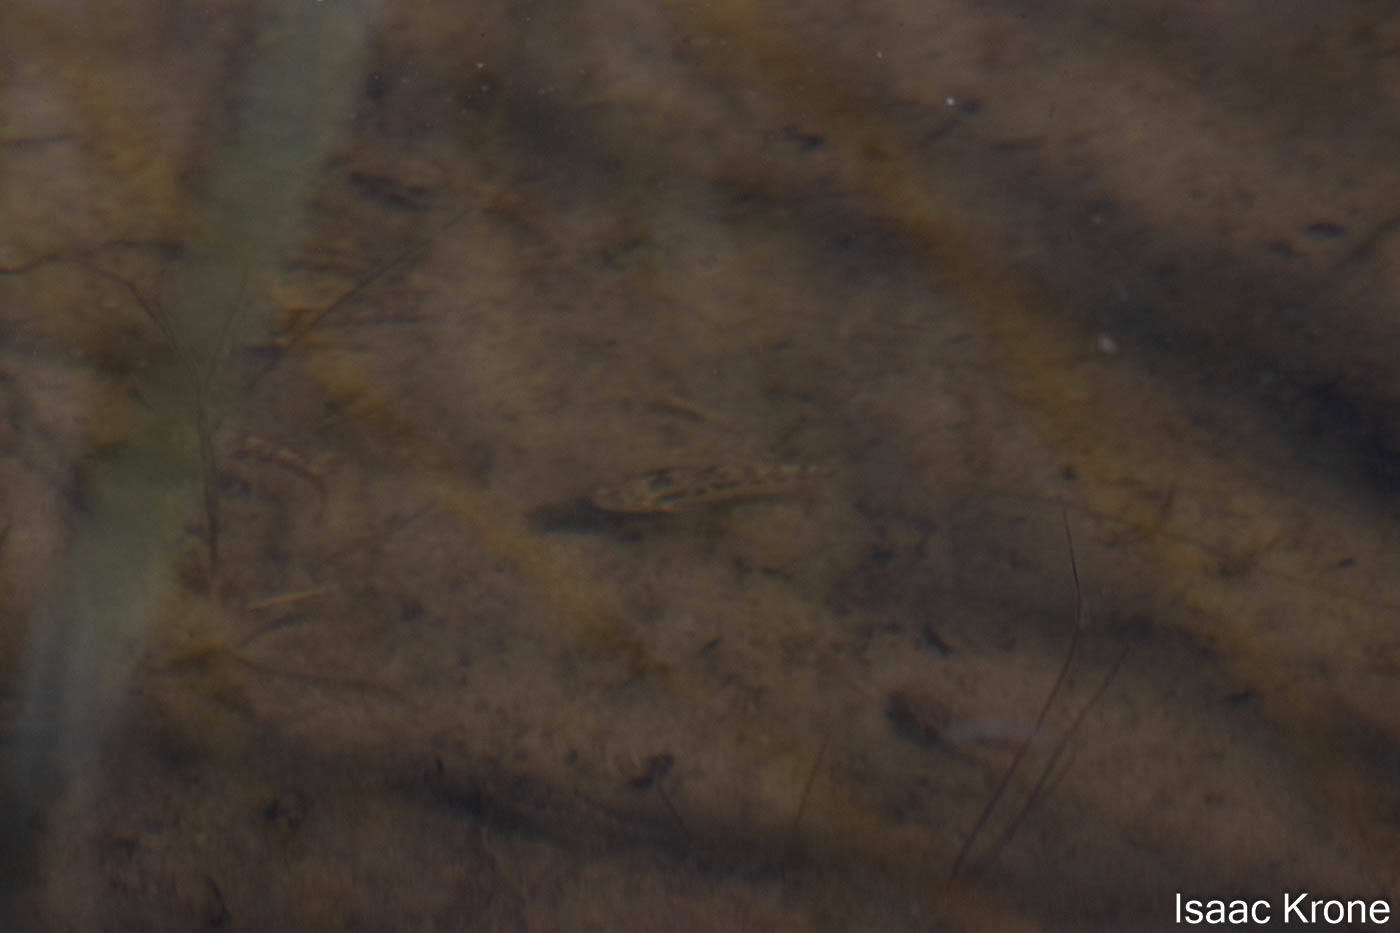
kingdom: Animalia
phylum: Chordata
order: Cyprinodontiformes
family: Cyprinodontidae
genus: Cyprinodon
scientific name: Cyprinodon eremus
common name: Sonoyta pupfish
